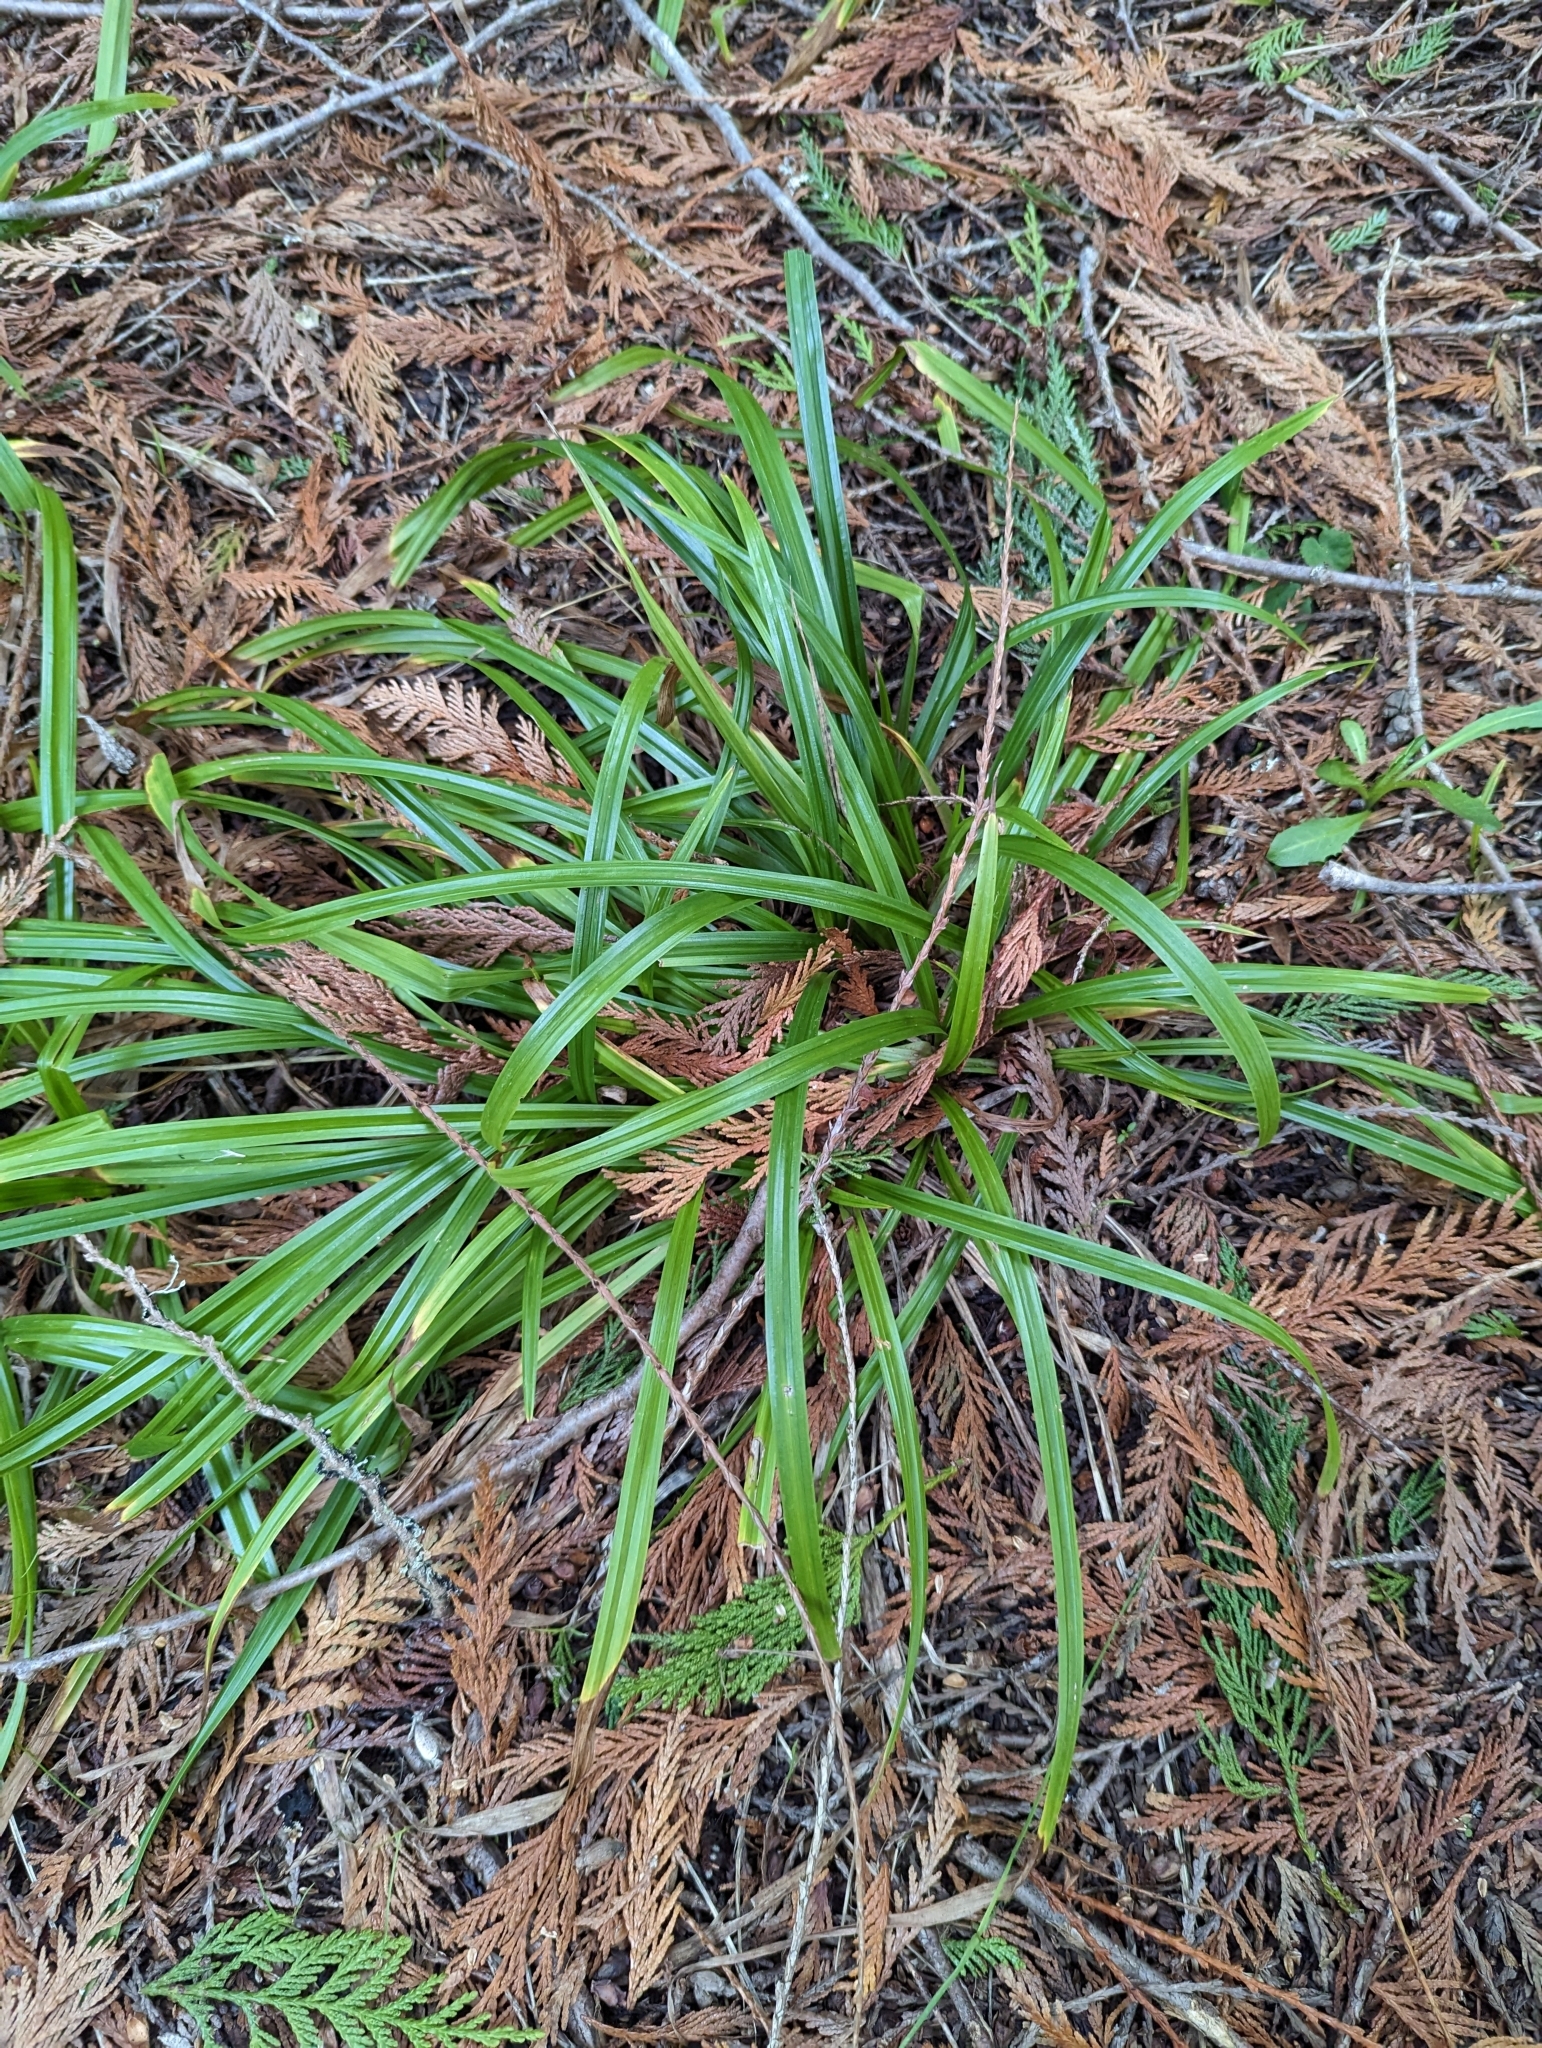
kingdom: Plantae
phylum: Tracheophyta
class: Liliopsida
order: Poales
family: Cyperaceae
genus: Carex
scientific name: Carex hendersonii
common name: Henderson's sedge
